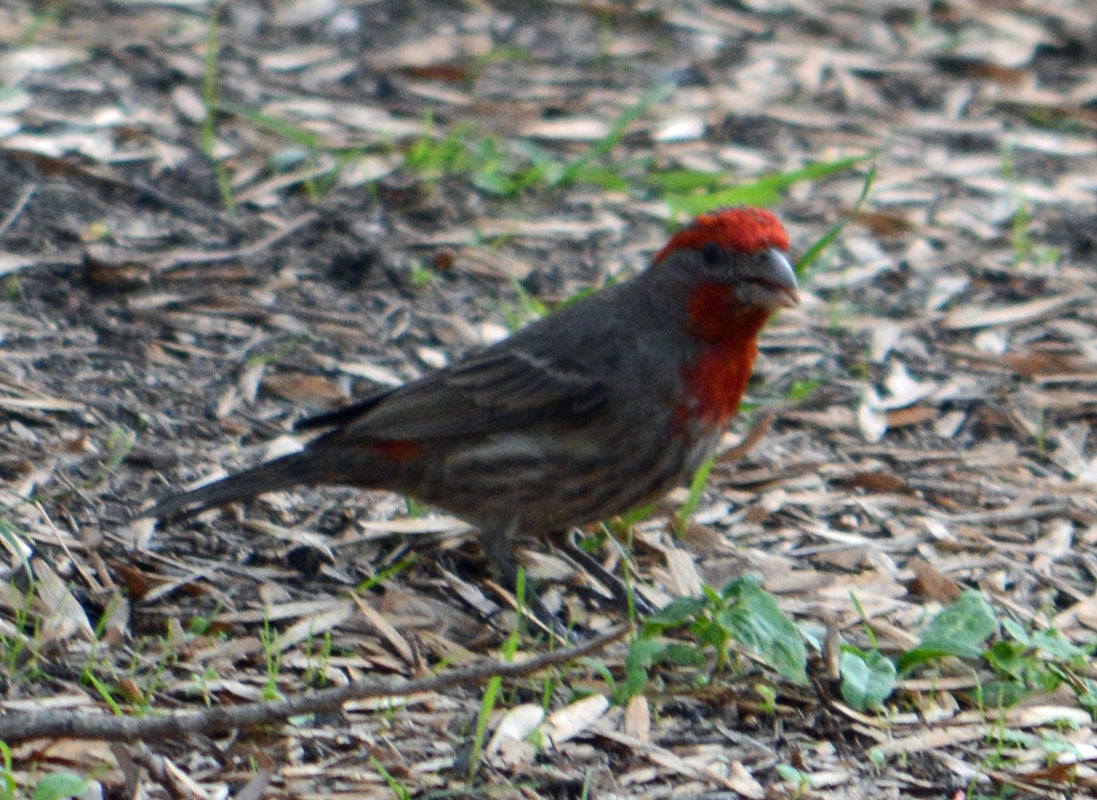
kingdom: Animalia
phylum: Chordata
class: Aves
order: Passeriformes
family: Fringillidae
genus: Haemorhous
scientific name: Haemorhous mexicanus
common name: House finch
